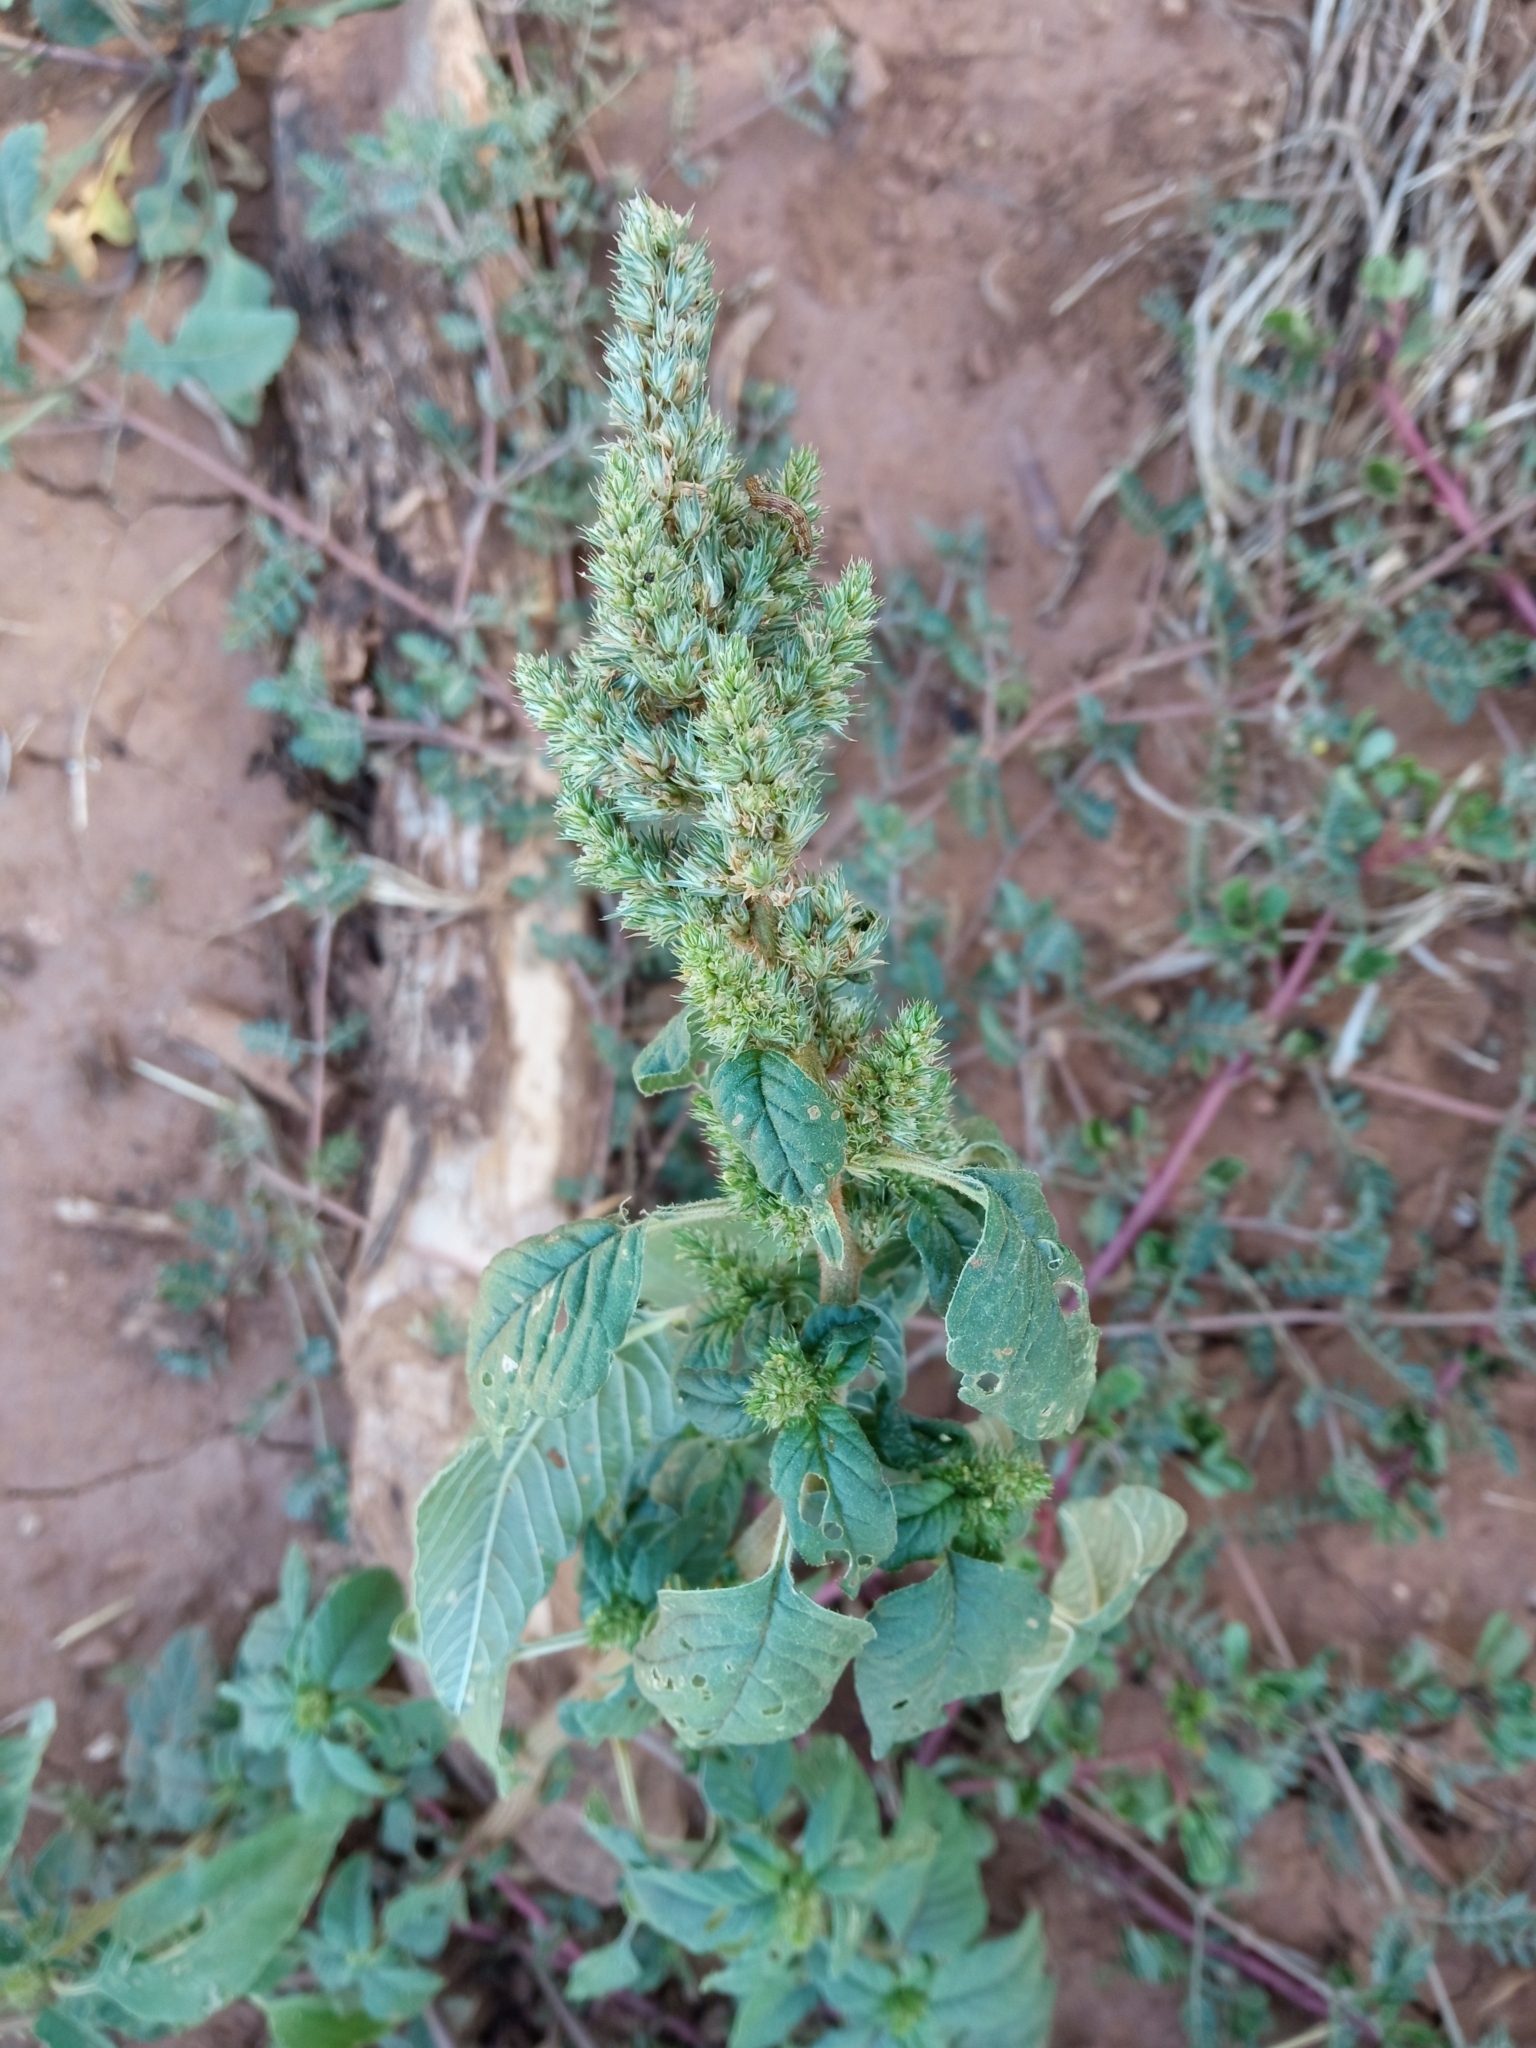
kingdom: Plantae
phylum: Tracheophyta
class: Magnoliopsida
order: Caryophyllales
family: Amaranthaceae
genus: Amaranthus
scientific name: Amaranthus retroflexus
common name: Redroot amaranth
